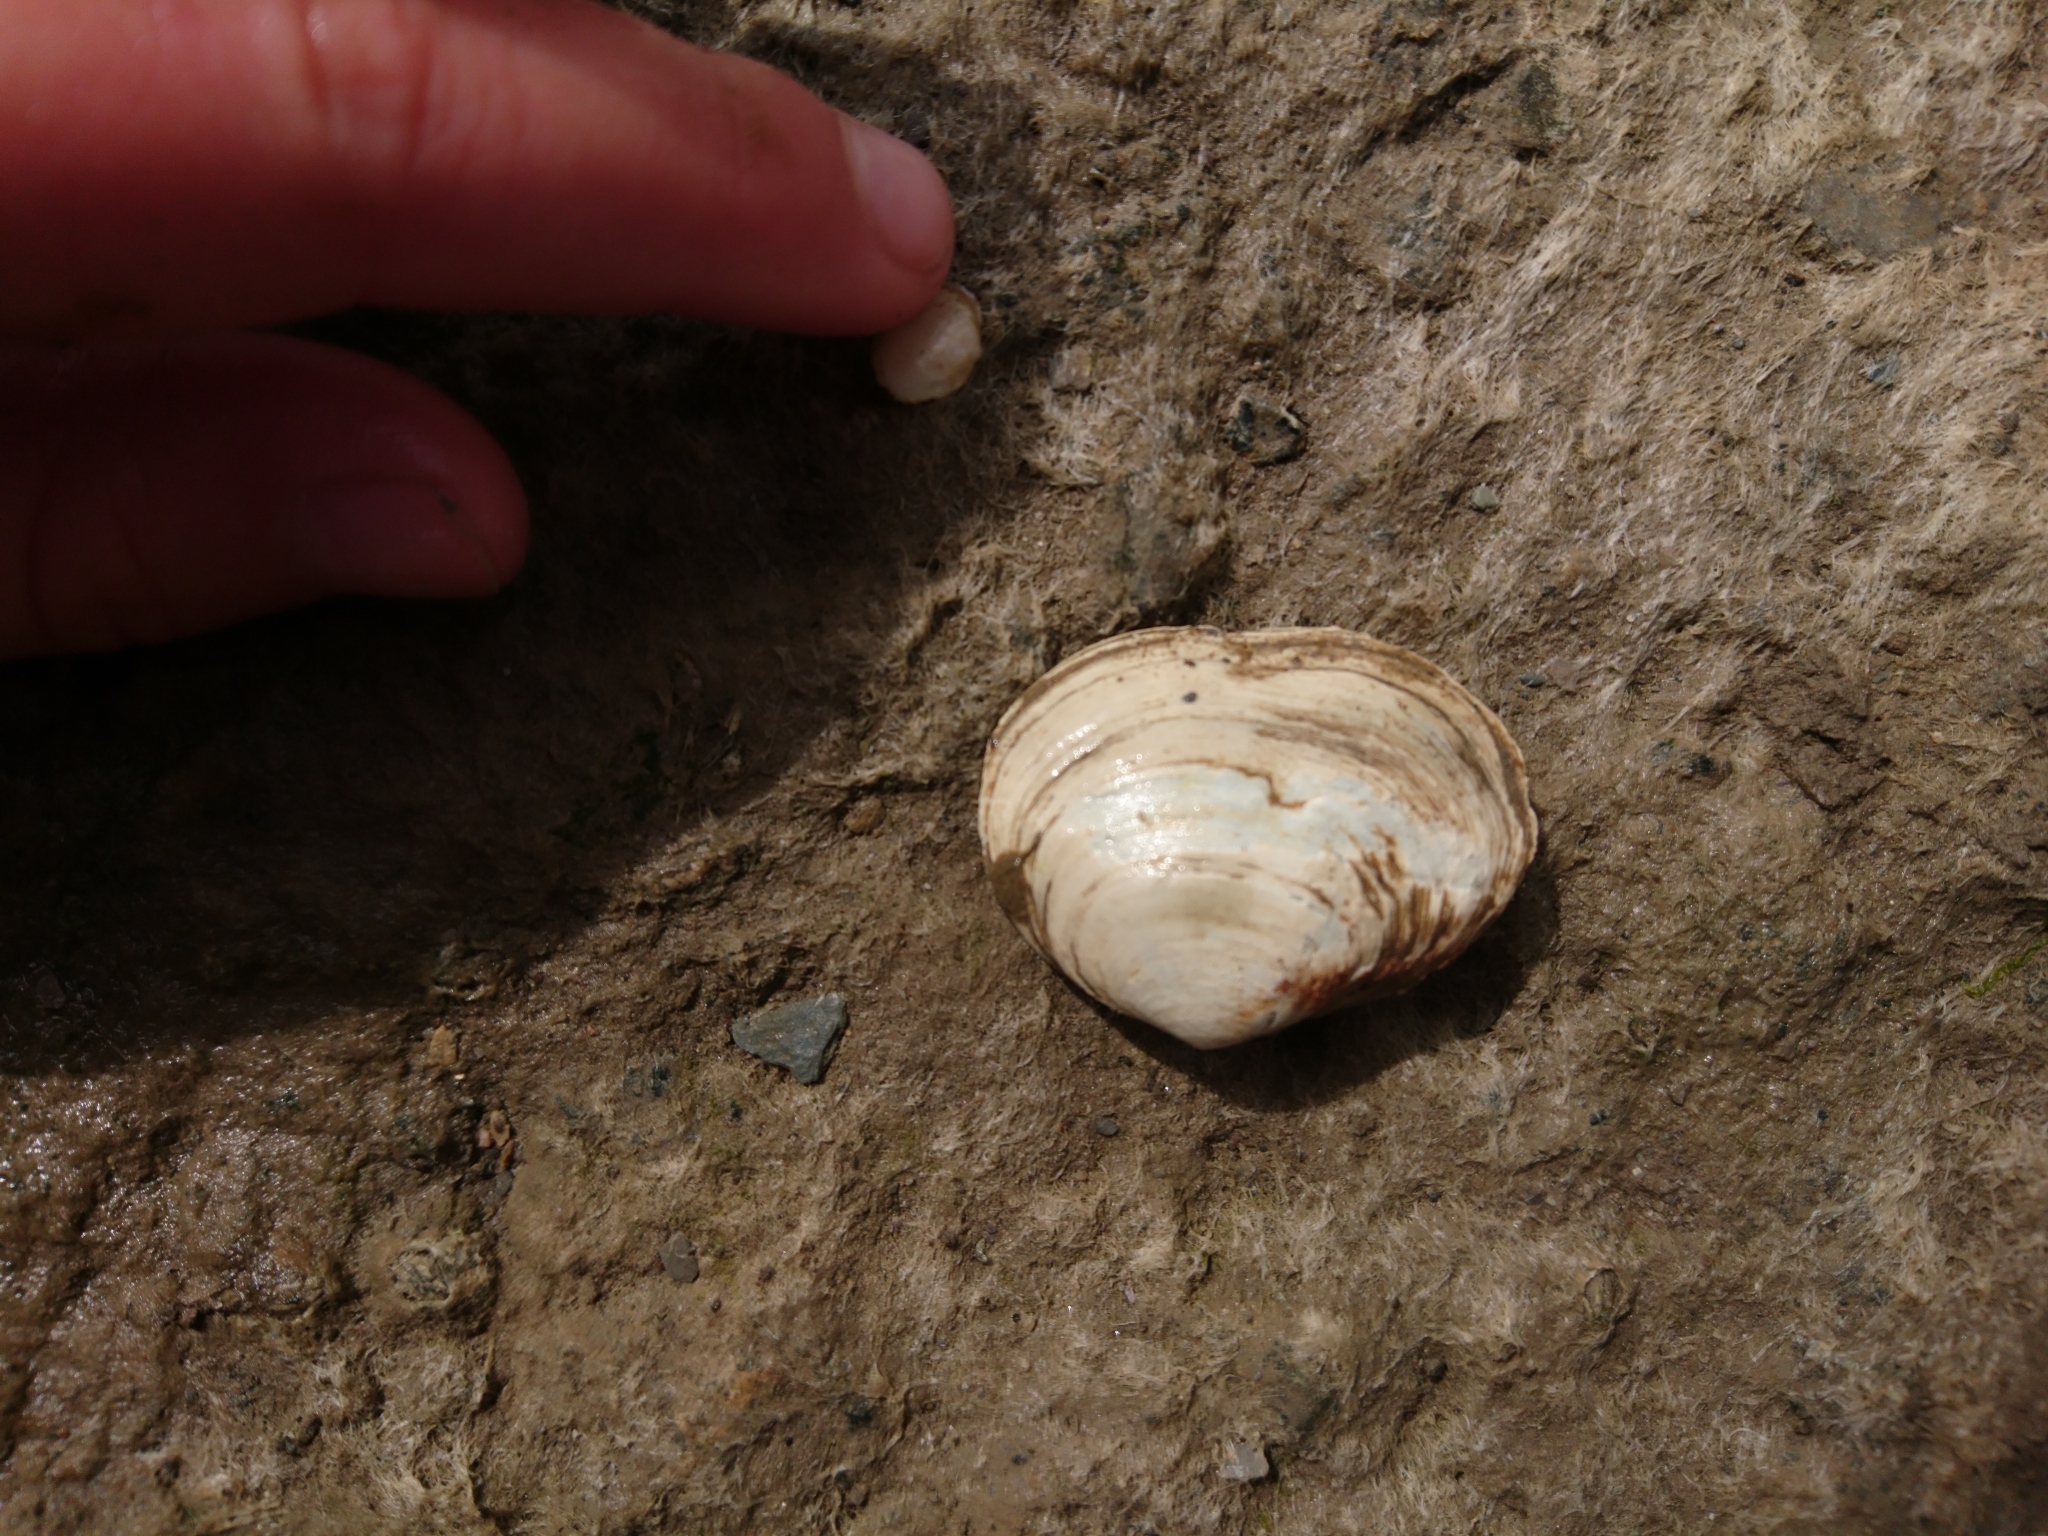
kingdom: Animalia
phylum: Mollusca
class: Bivalvia
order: Cardiida
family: Semelidae
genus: Scrobicularia
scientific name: Scrobicularia plana
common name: Peppery furrow shell
